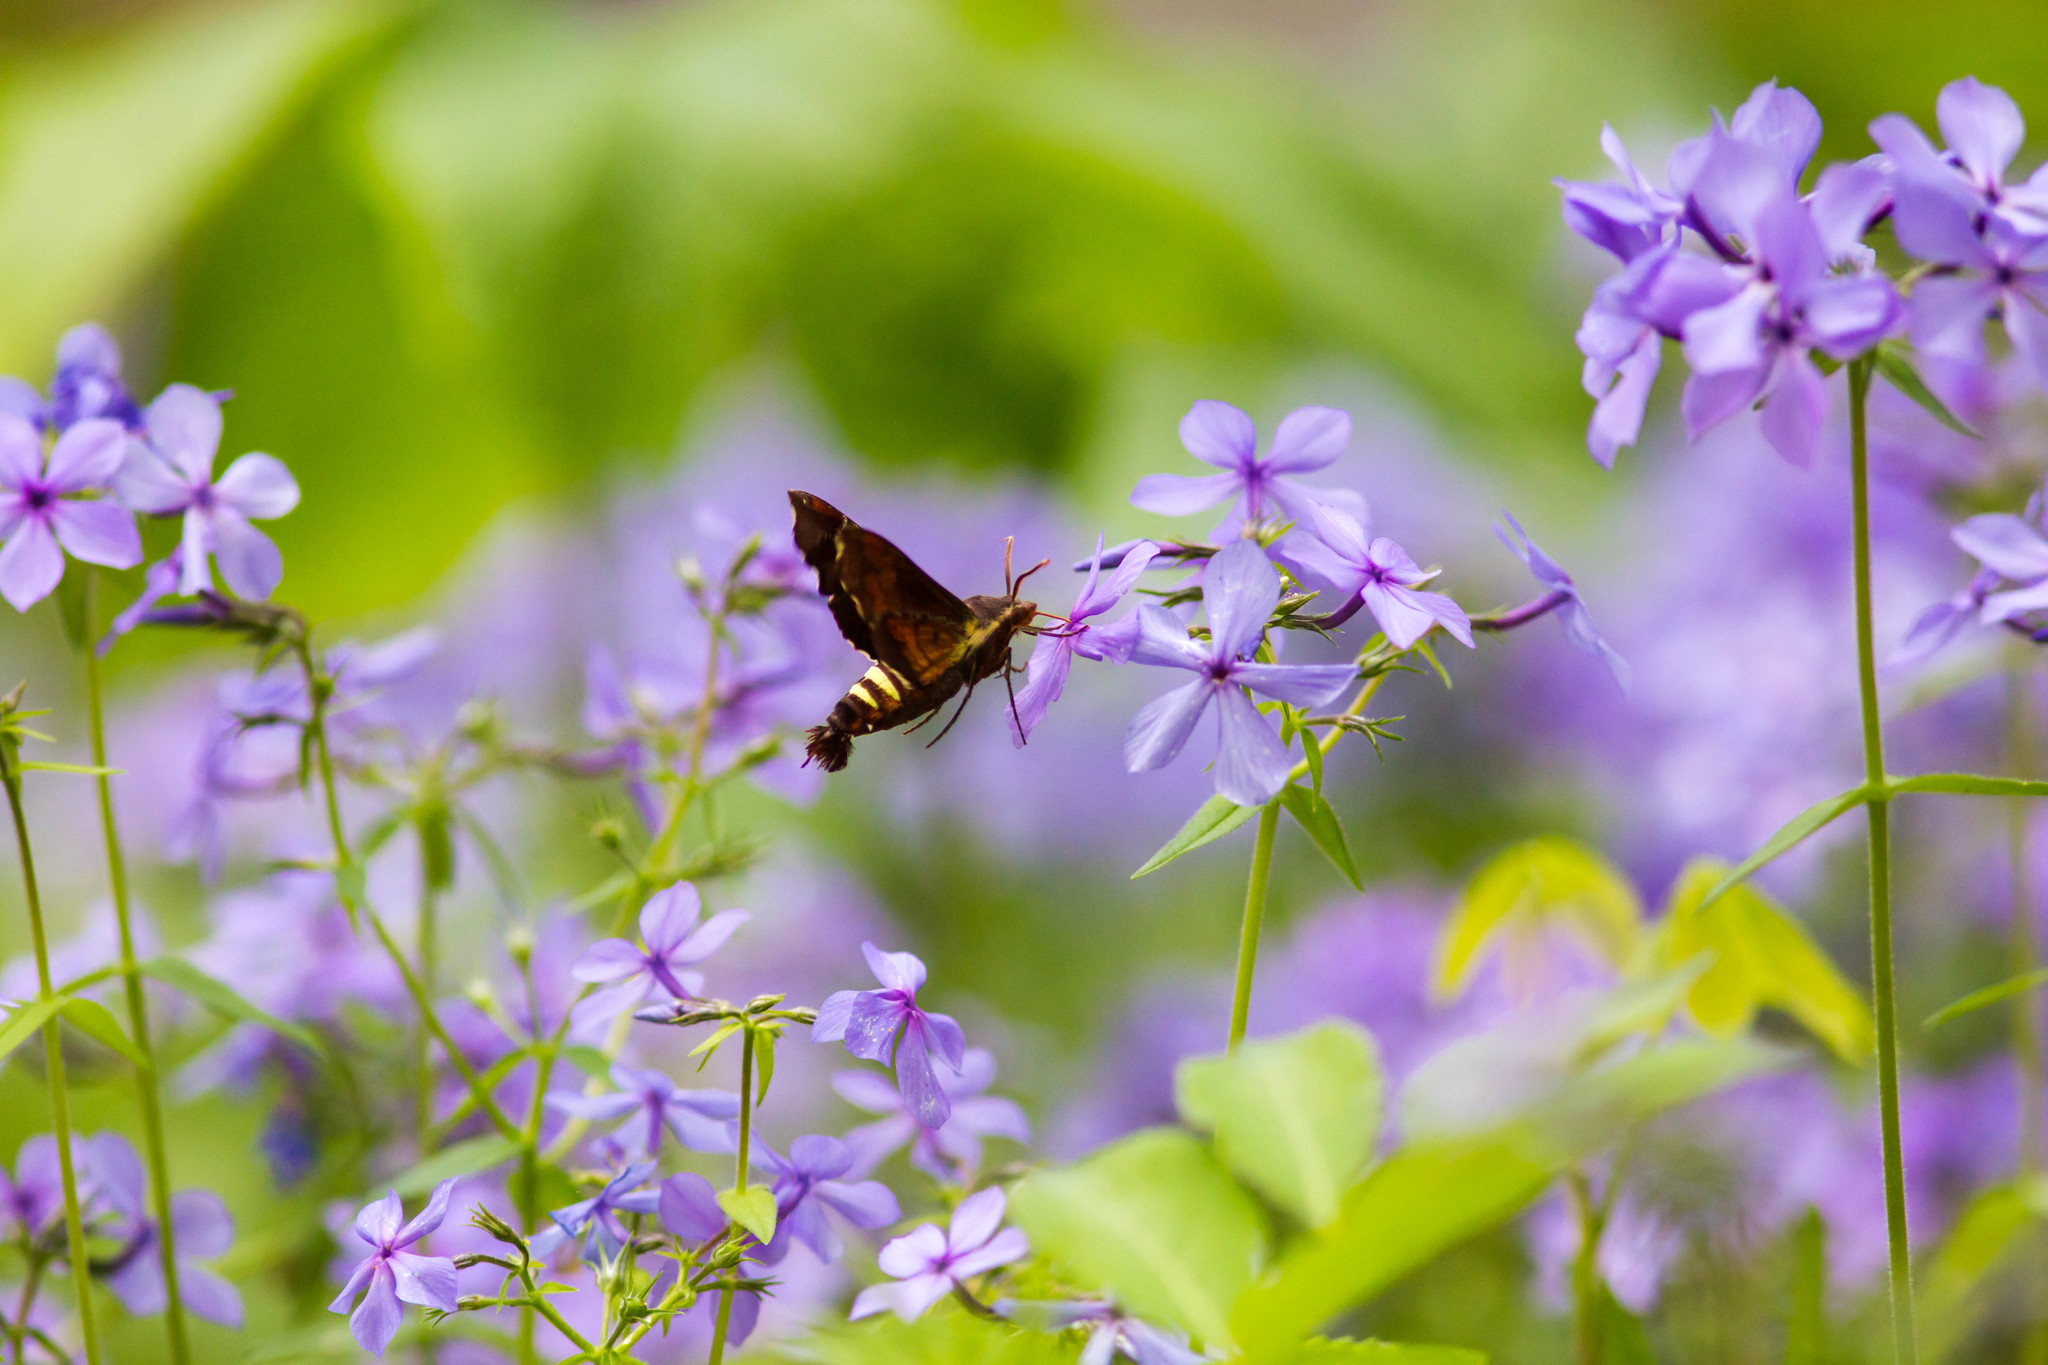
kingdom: Animalia
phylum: Arthropoda
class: Insecta
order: Lepidoptera
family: Sphingidae
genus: Amphion
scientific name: Amphion floridensis
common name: Nessus sphinx
